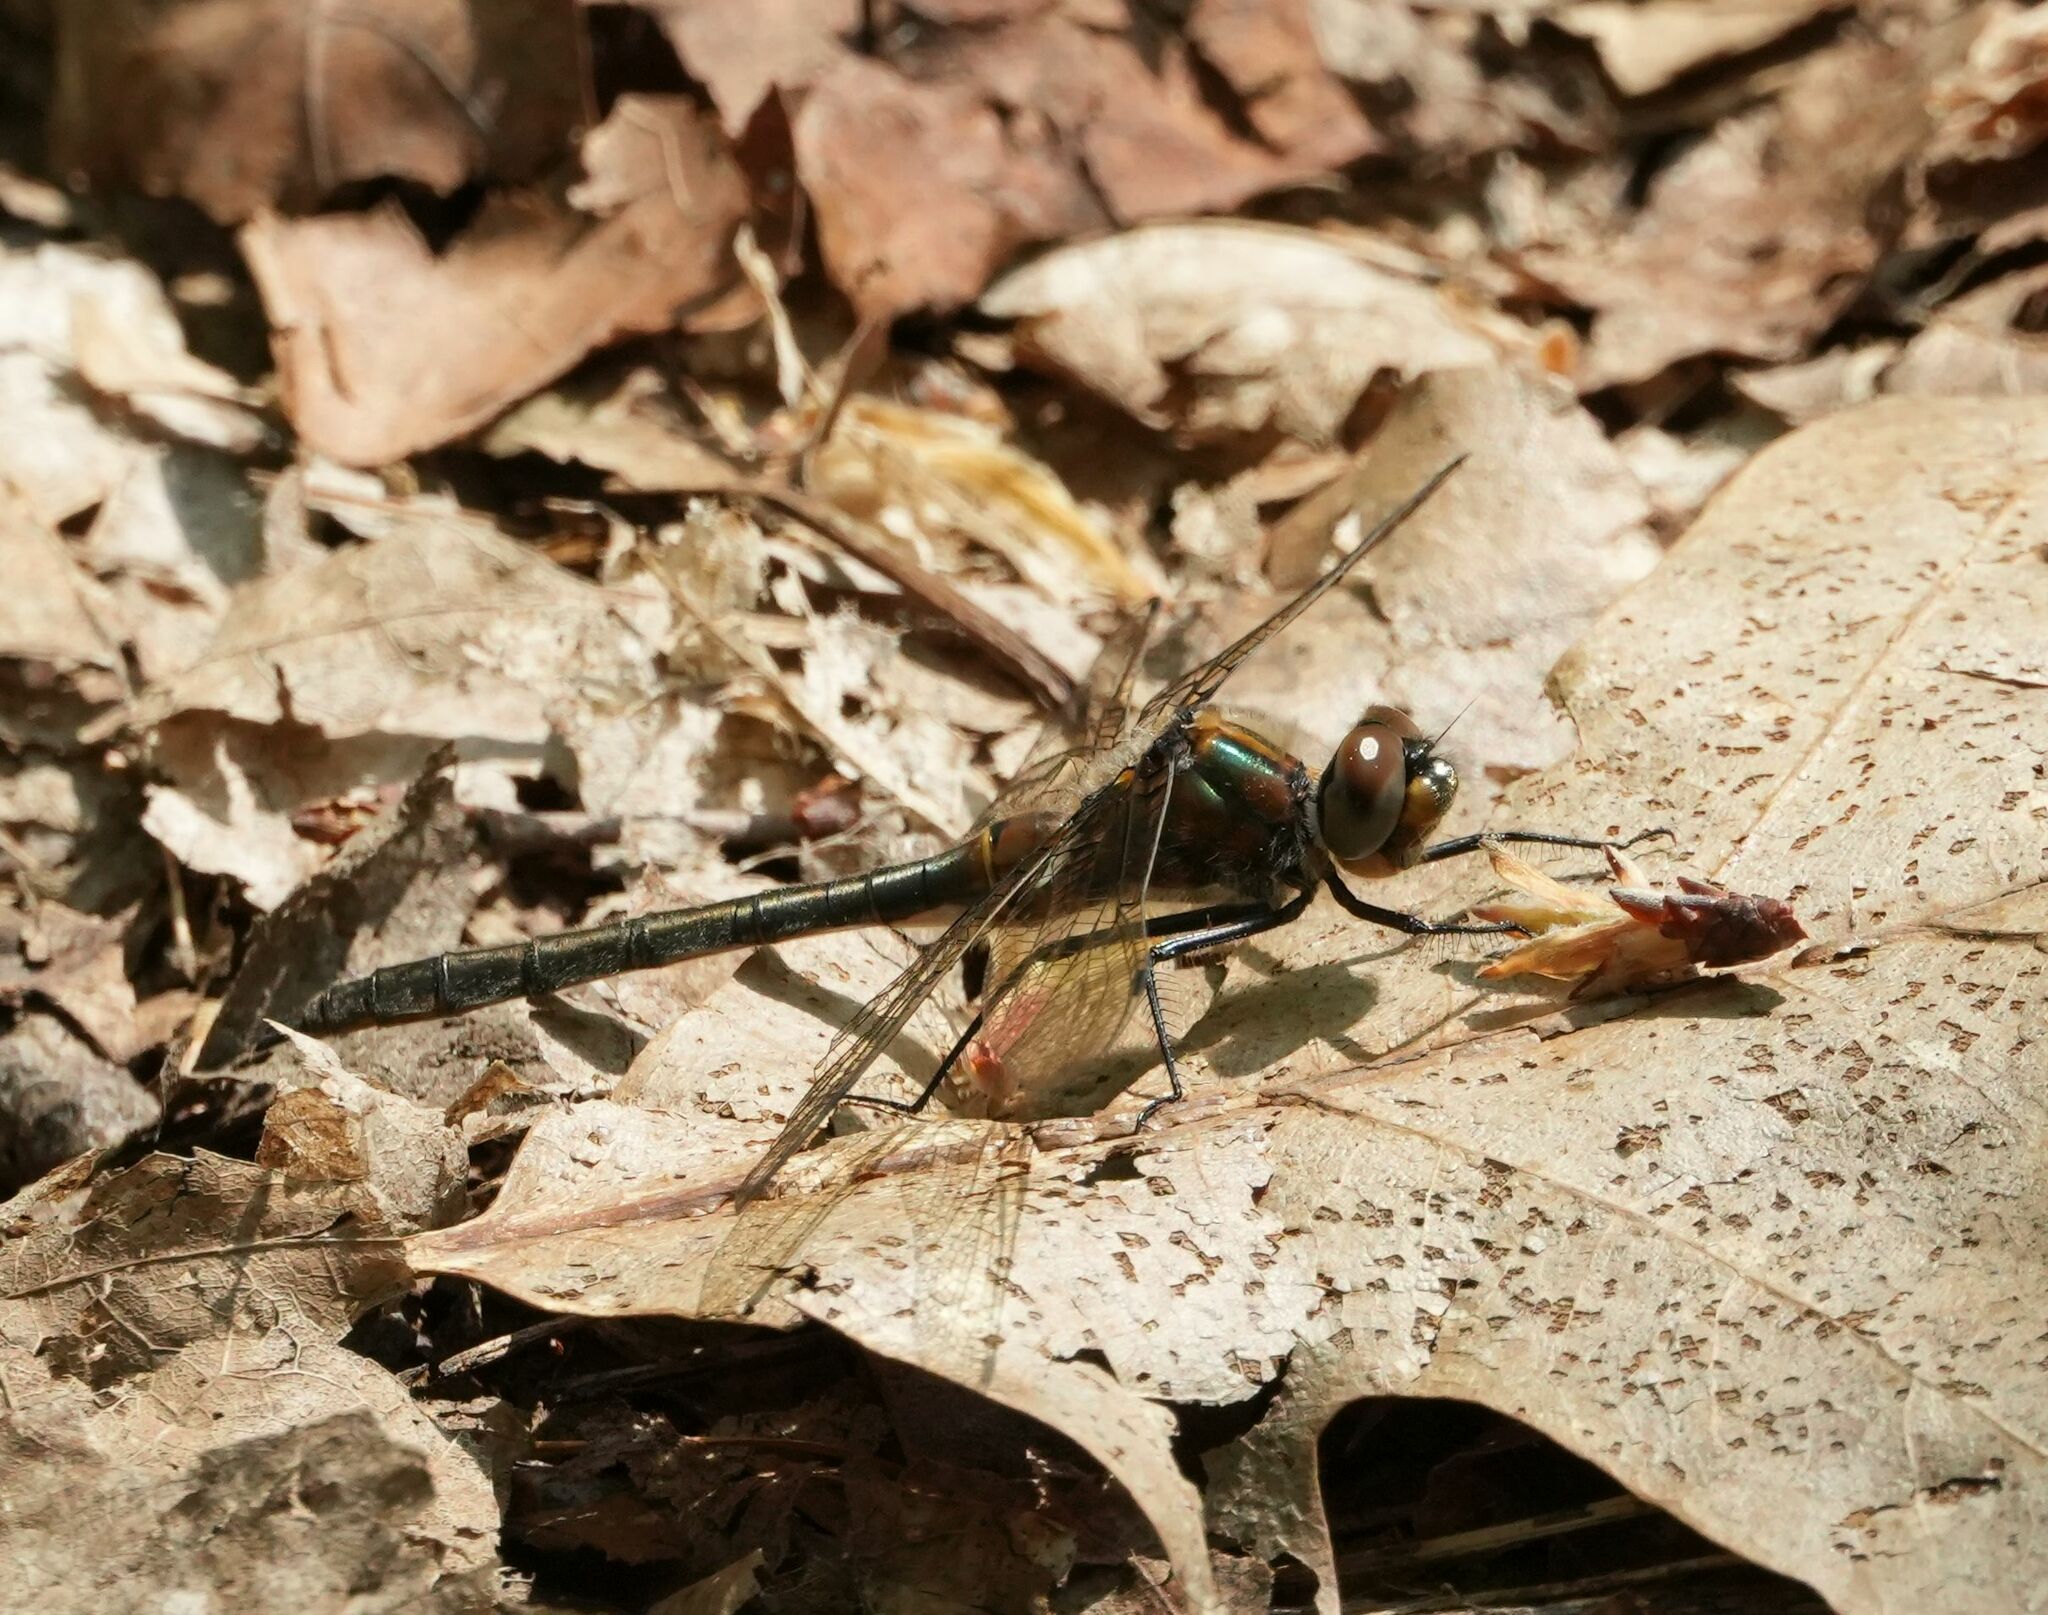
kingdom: Animalia
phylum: Arthropoda
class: Insecta
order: Odonata
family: Corduliidae
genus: Cordulia
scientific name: Cordulia shurtleffii
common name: American emerald
